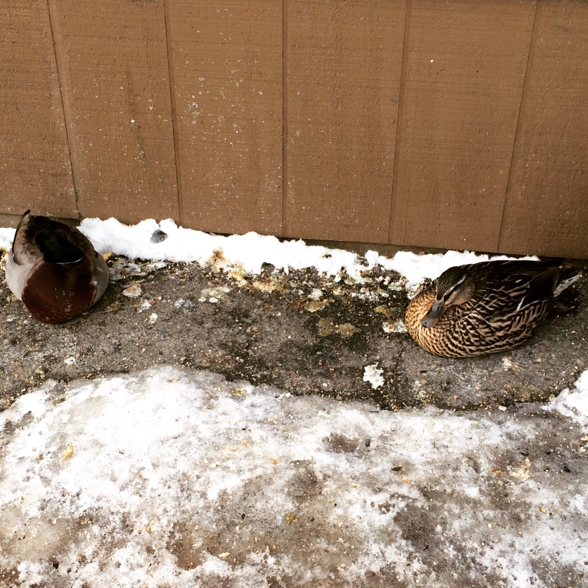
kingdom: Animalia
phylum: Chordata
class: Aves
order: Anseriformes
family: Anatidae
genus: Anas
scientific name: Anas platyrhynchos
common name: Mallard
